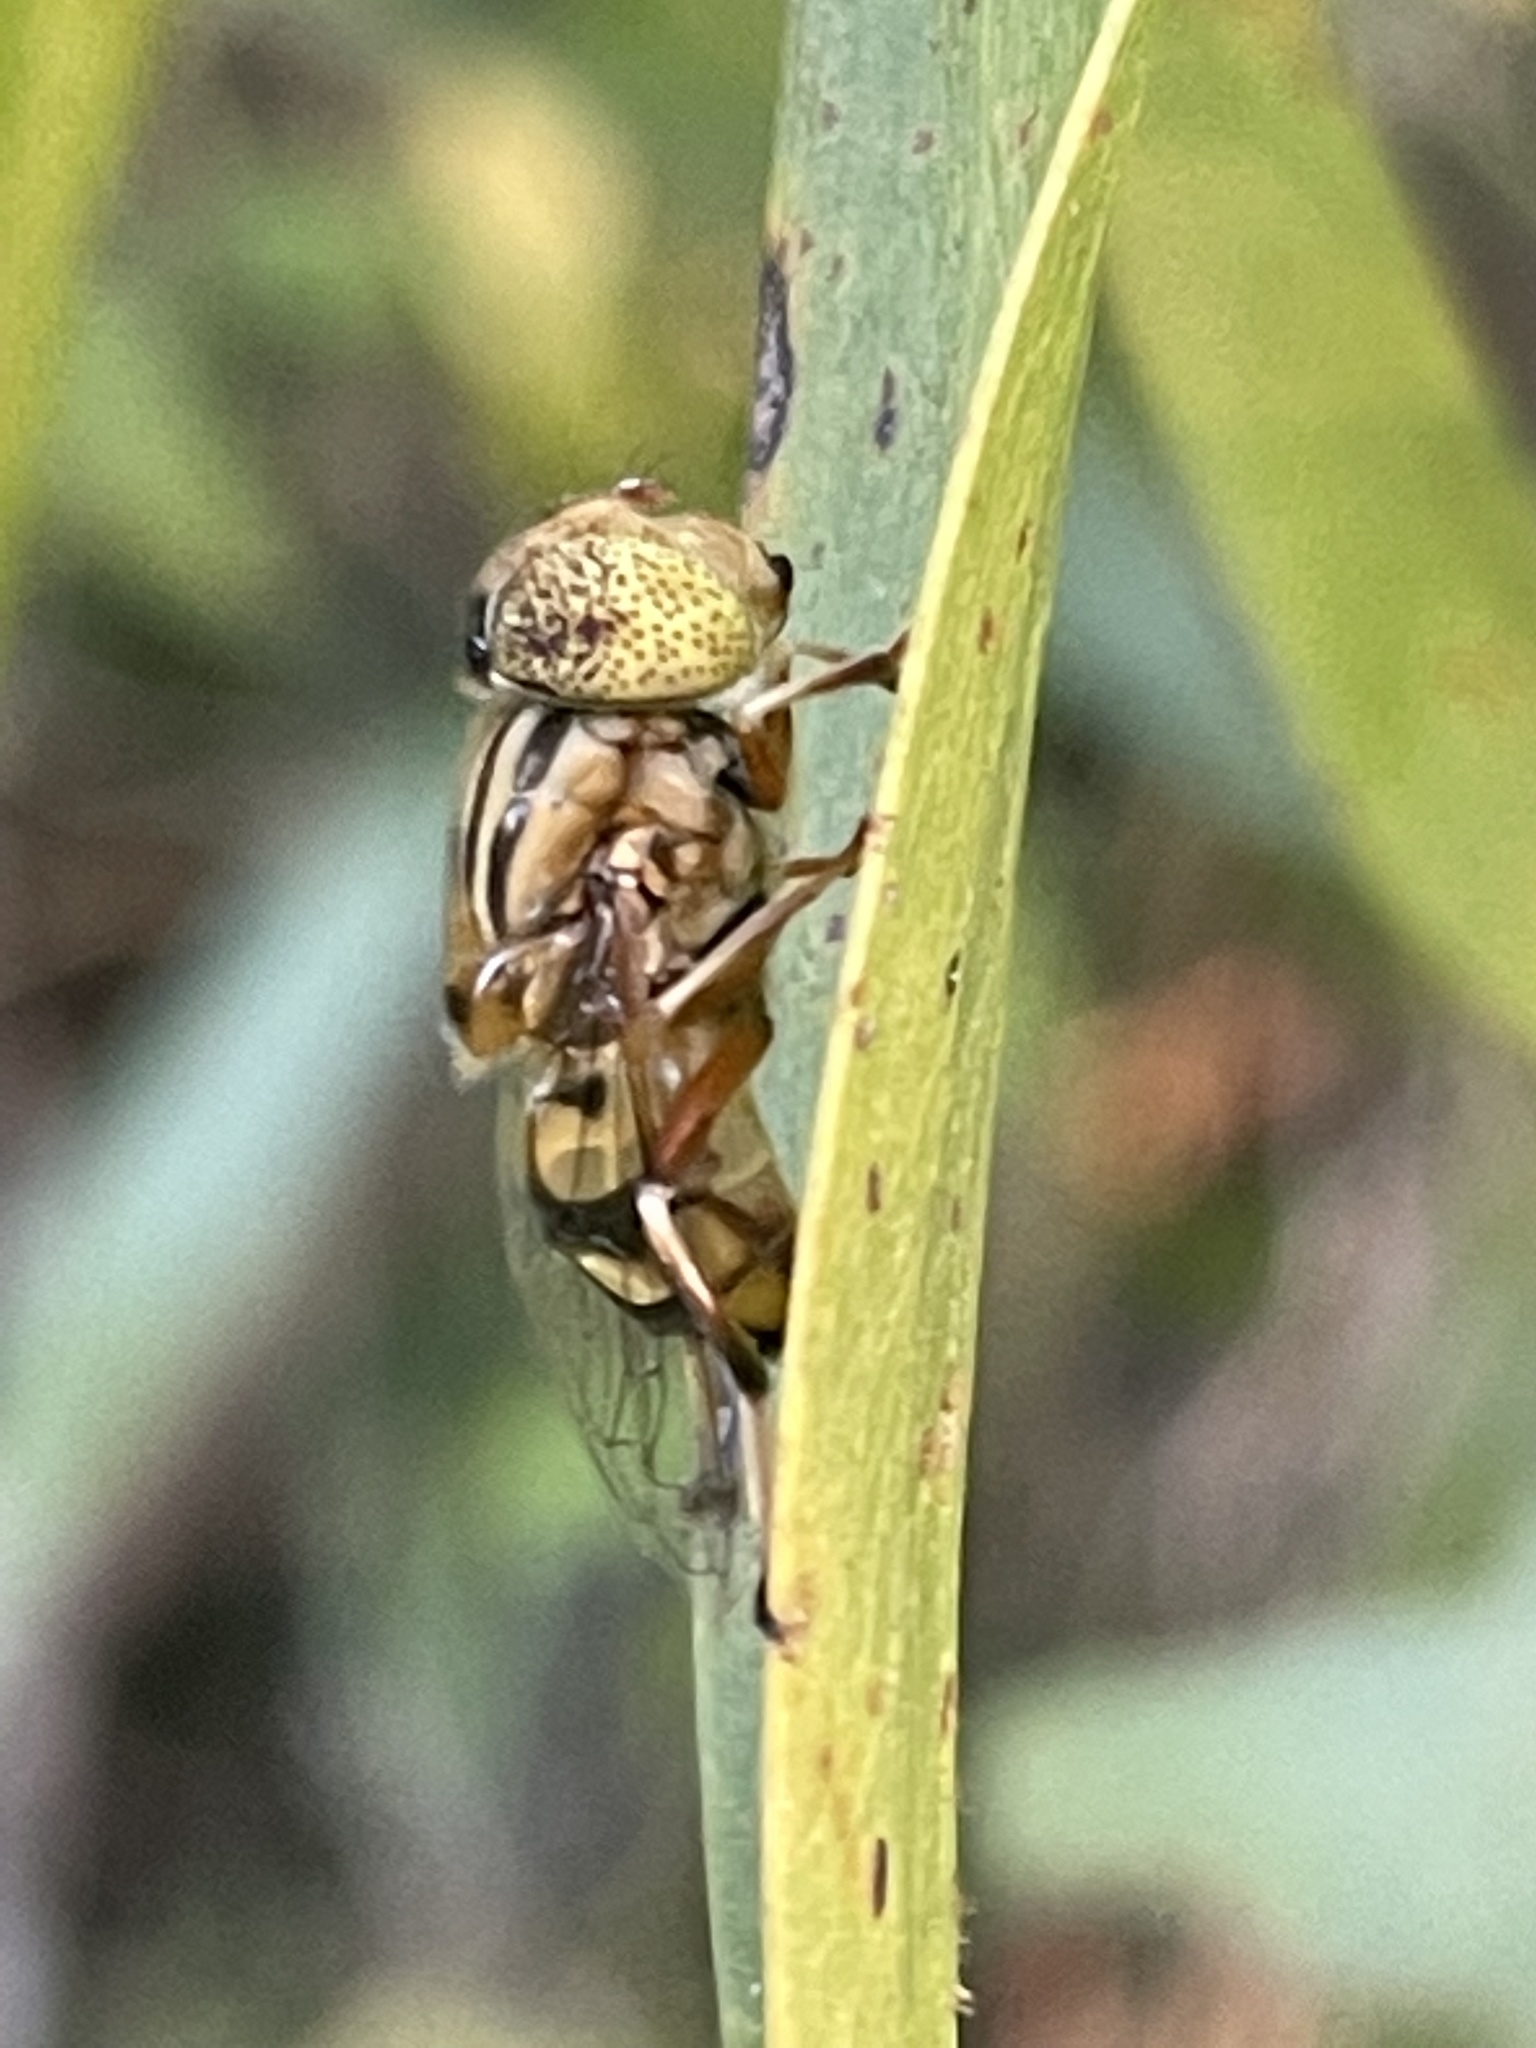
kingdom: Animalia
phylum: Arthropoda
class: Insecta
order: Diptera
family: Syrphidae
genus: Eristalinus
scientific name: Eristalinus punctulatus
